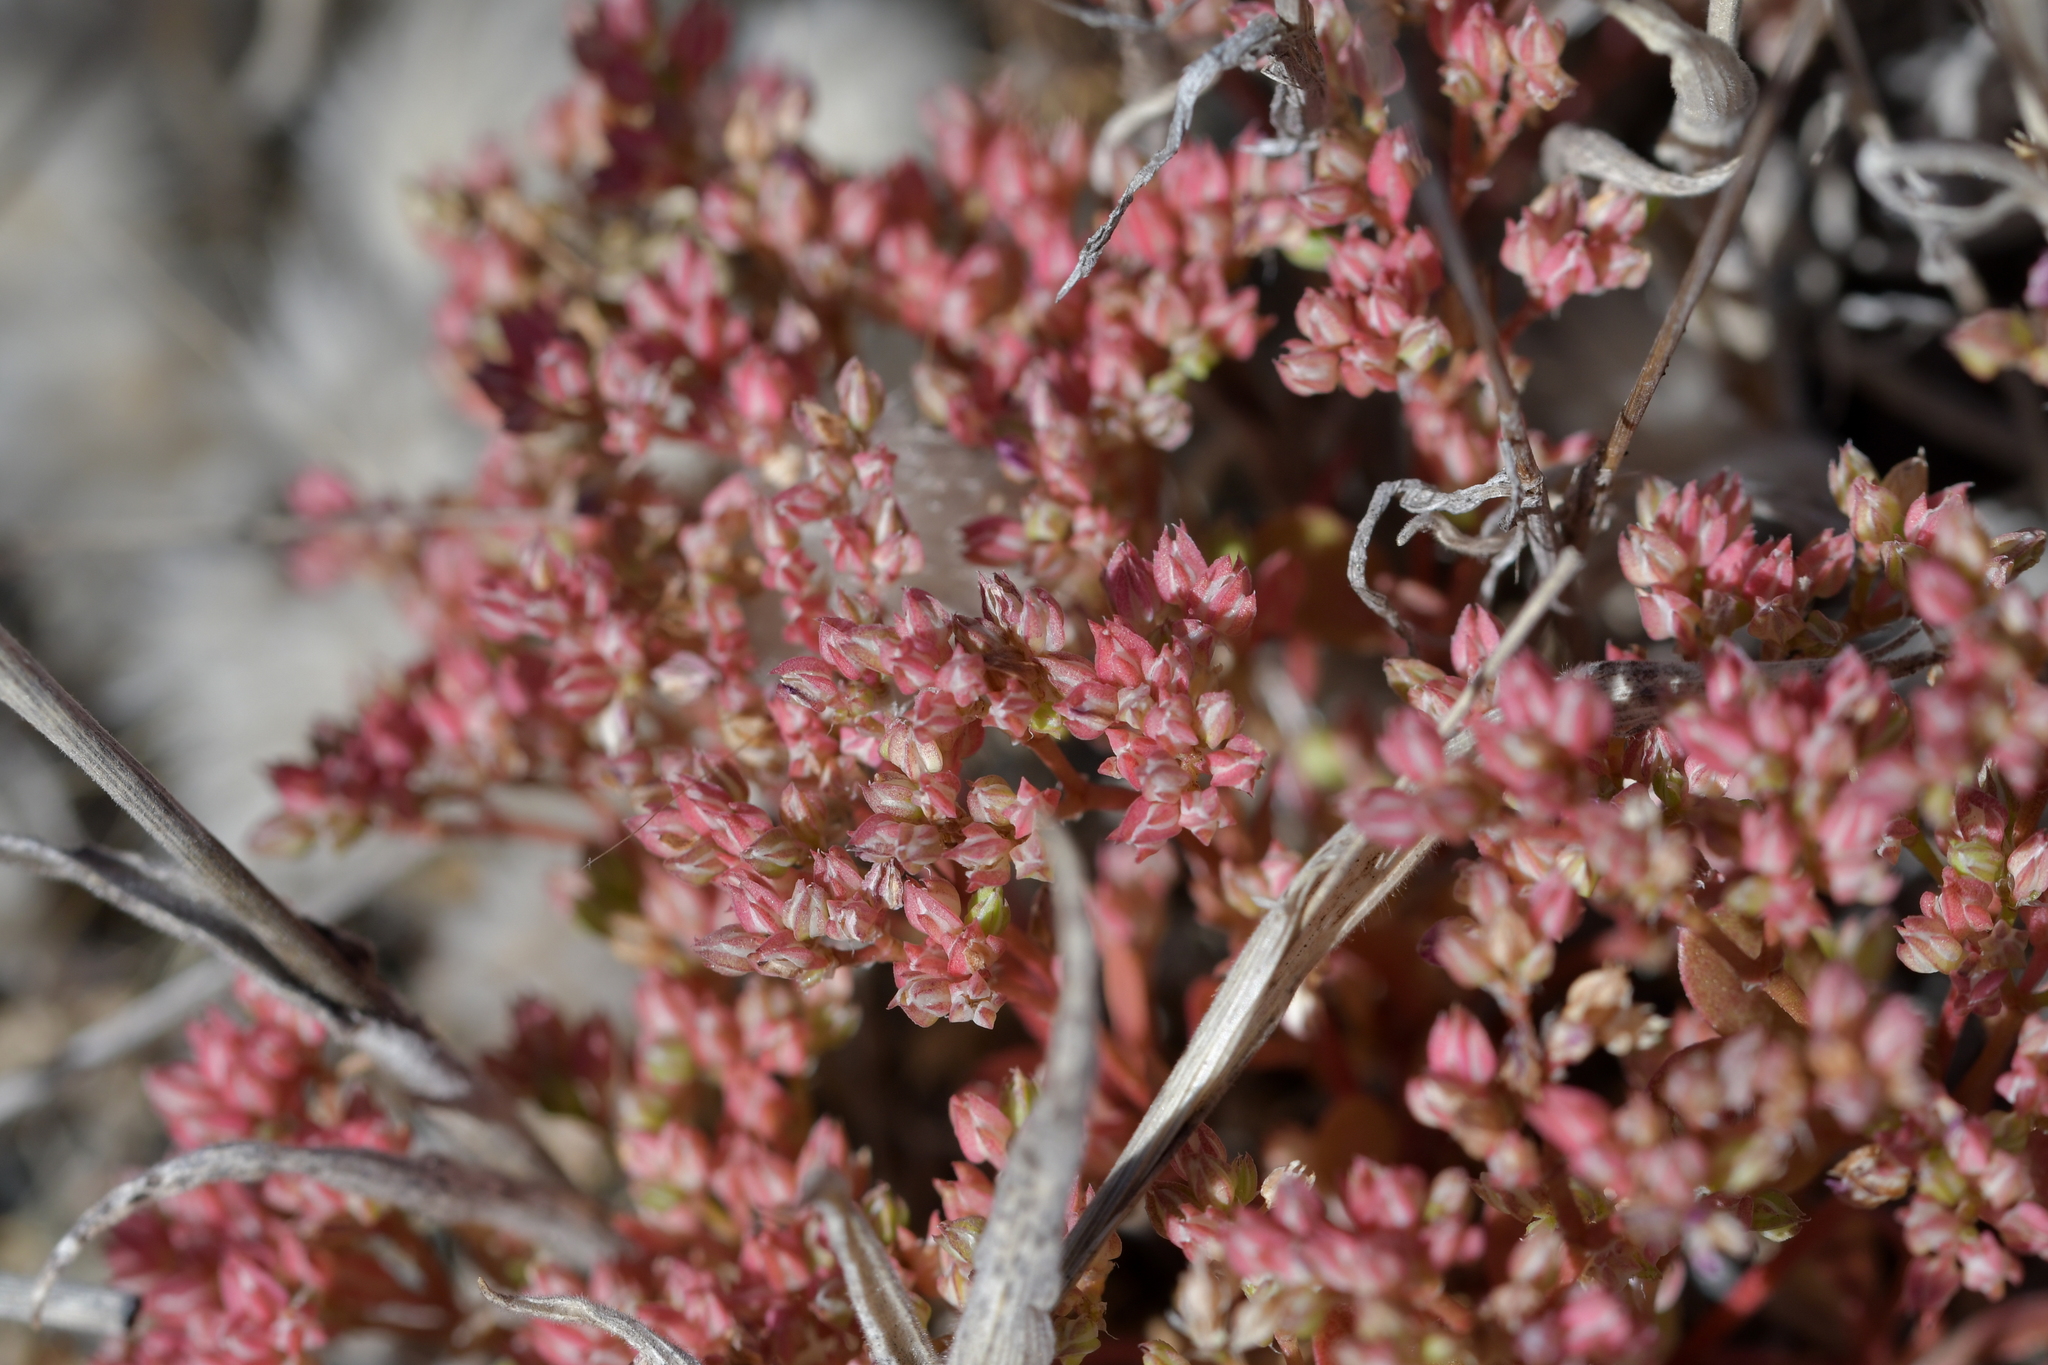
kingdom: Plantae
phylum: Tracheophyta
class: Magnoliopsida
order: Caryophyllales
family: Caryophyllaceae
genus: Polycarpon
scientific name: Polycarpon tetraphyllum
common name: Four-leaved all-seed
